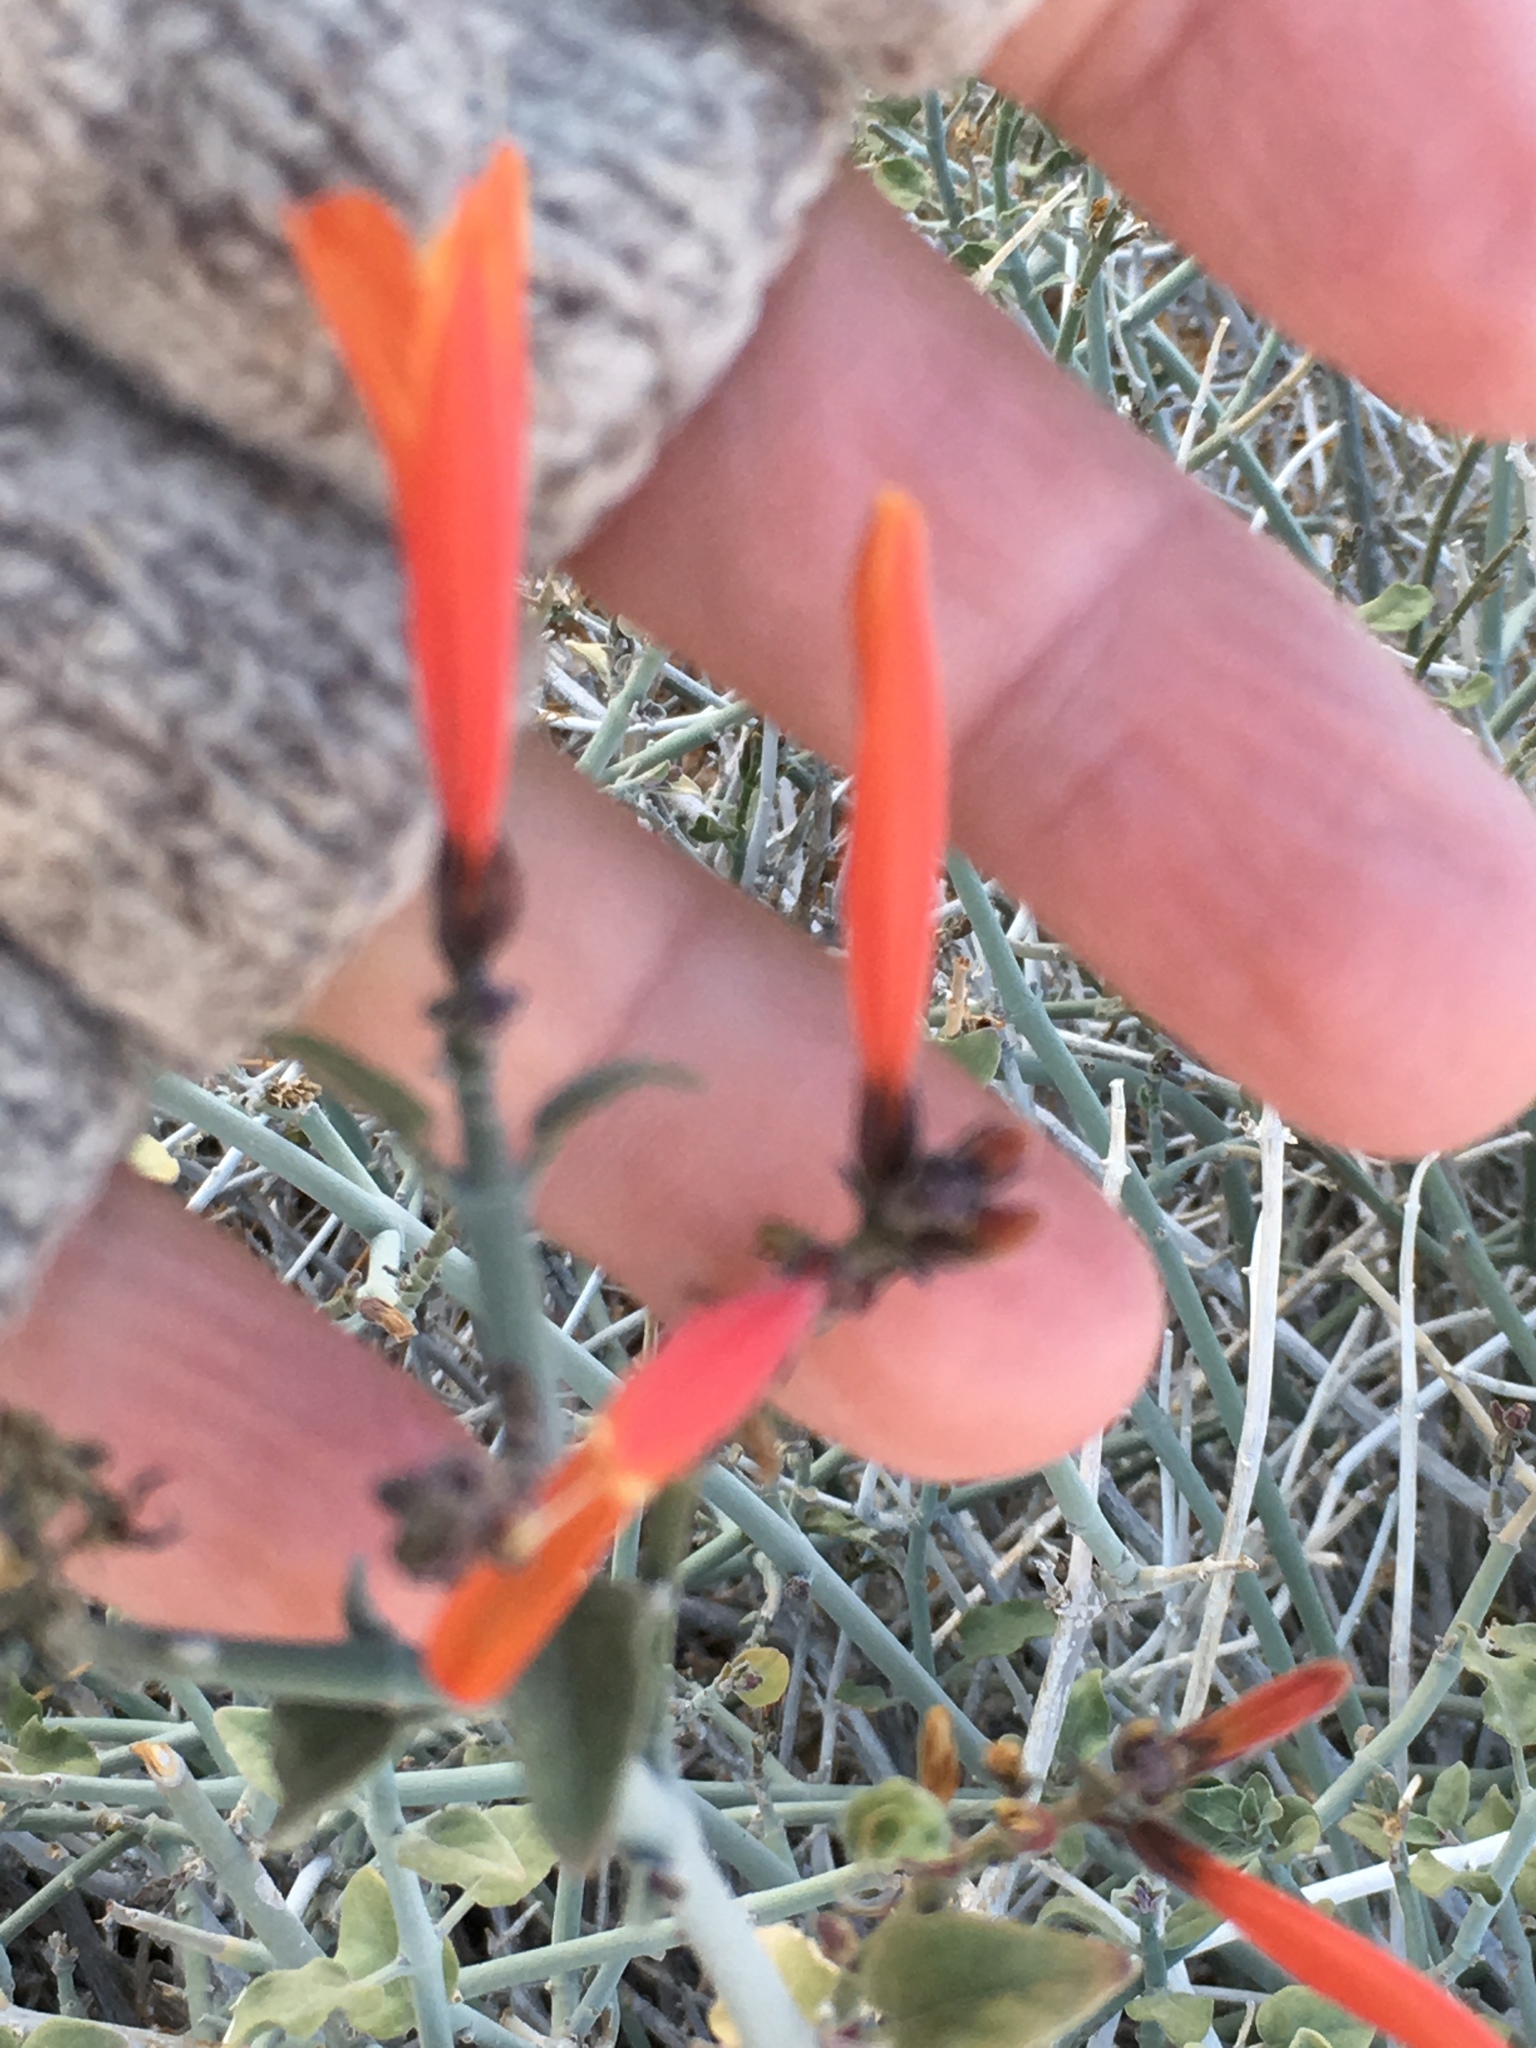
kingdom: Plantae
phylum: Tracheophyta
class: Magnoliopsida
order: Lamiales
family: Acanthaceae
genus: Justicia
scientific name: Justicia californica
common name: Chuparosa-honeysuckle
